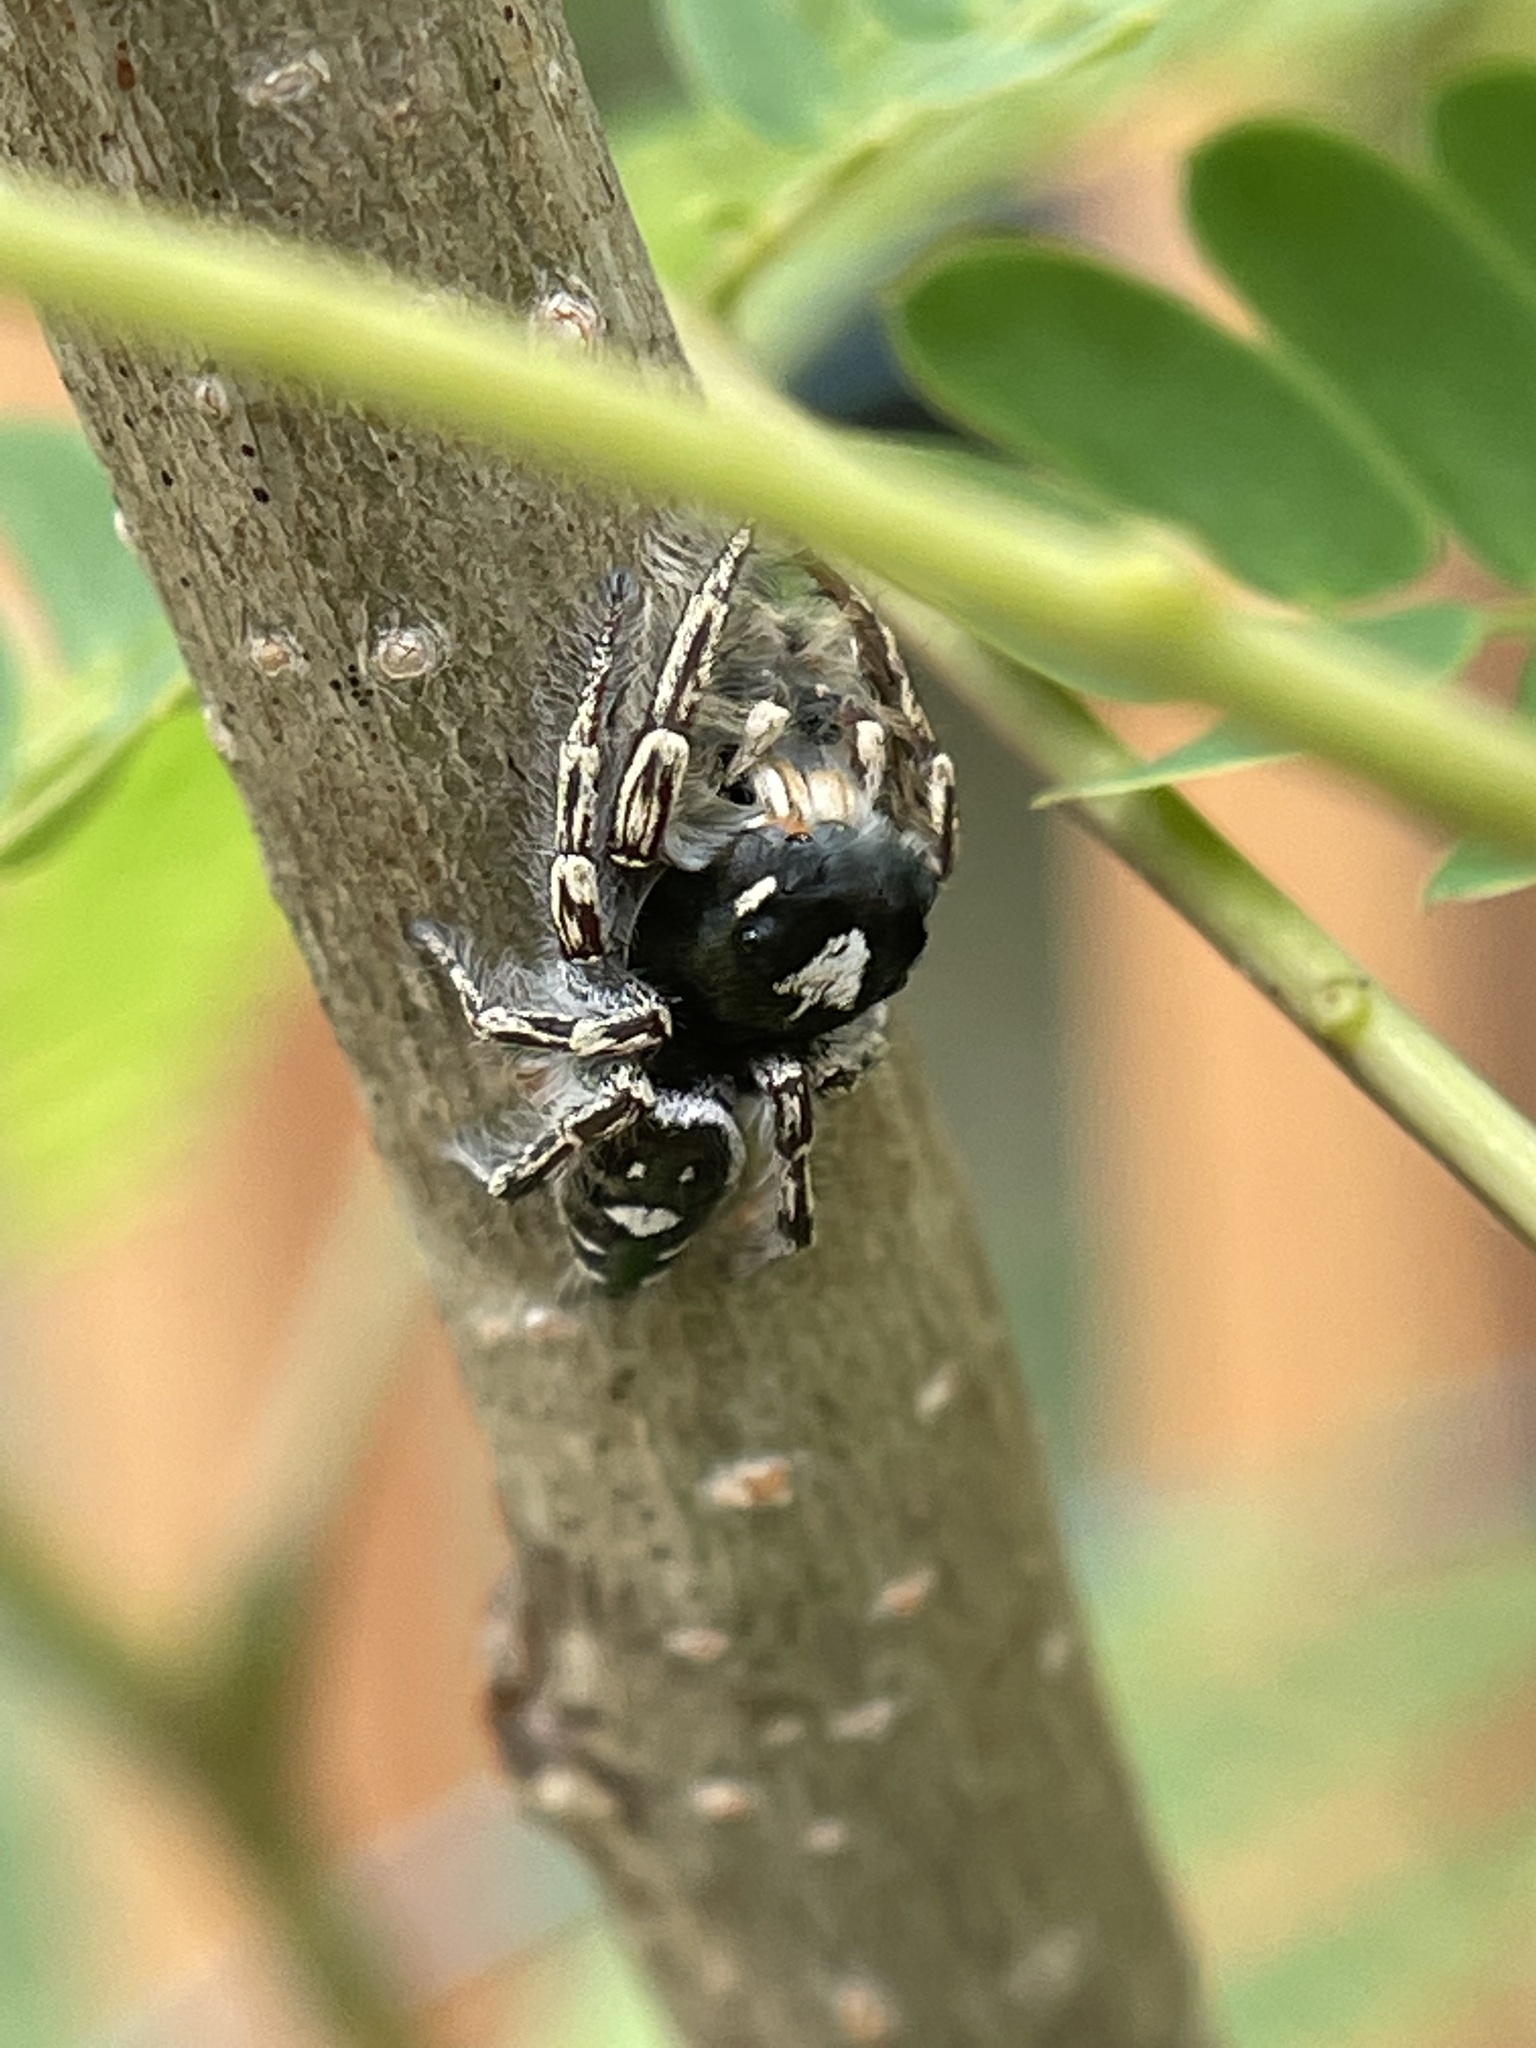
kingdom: Animalia
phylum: Arthropoda
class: Arachnida
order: Araneae
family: Salticidae
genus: Phidippus
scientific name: Phidippus putnami
